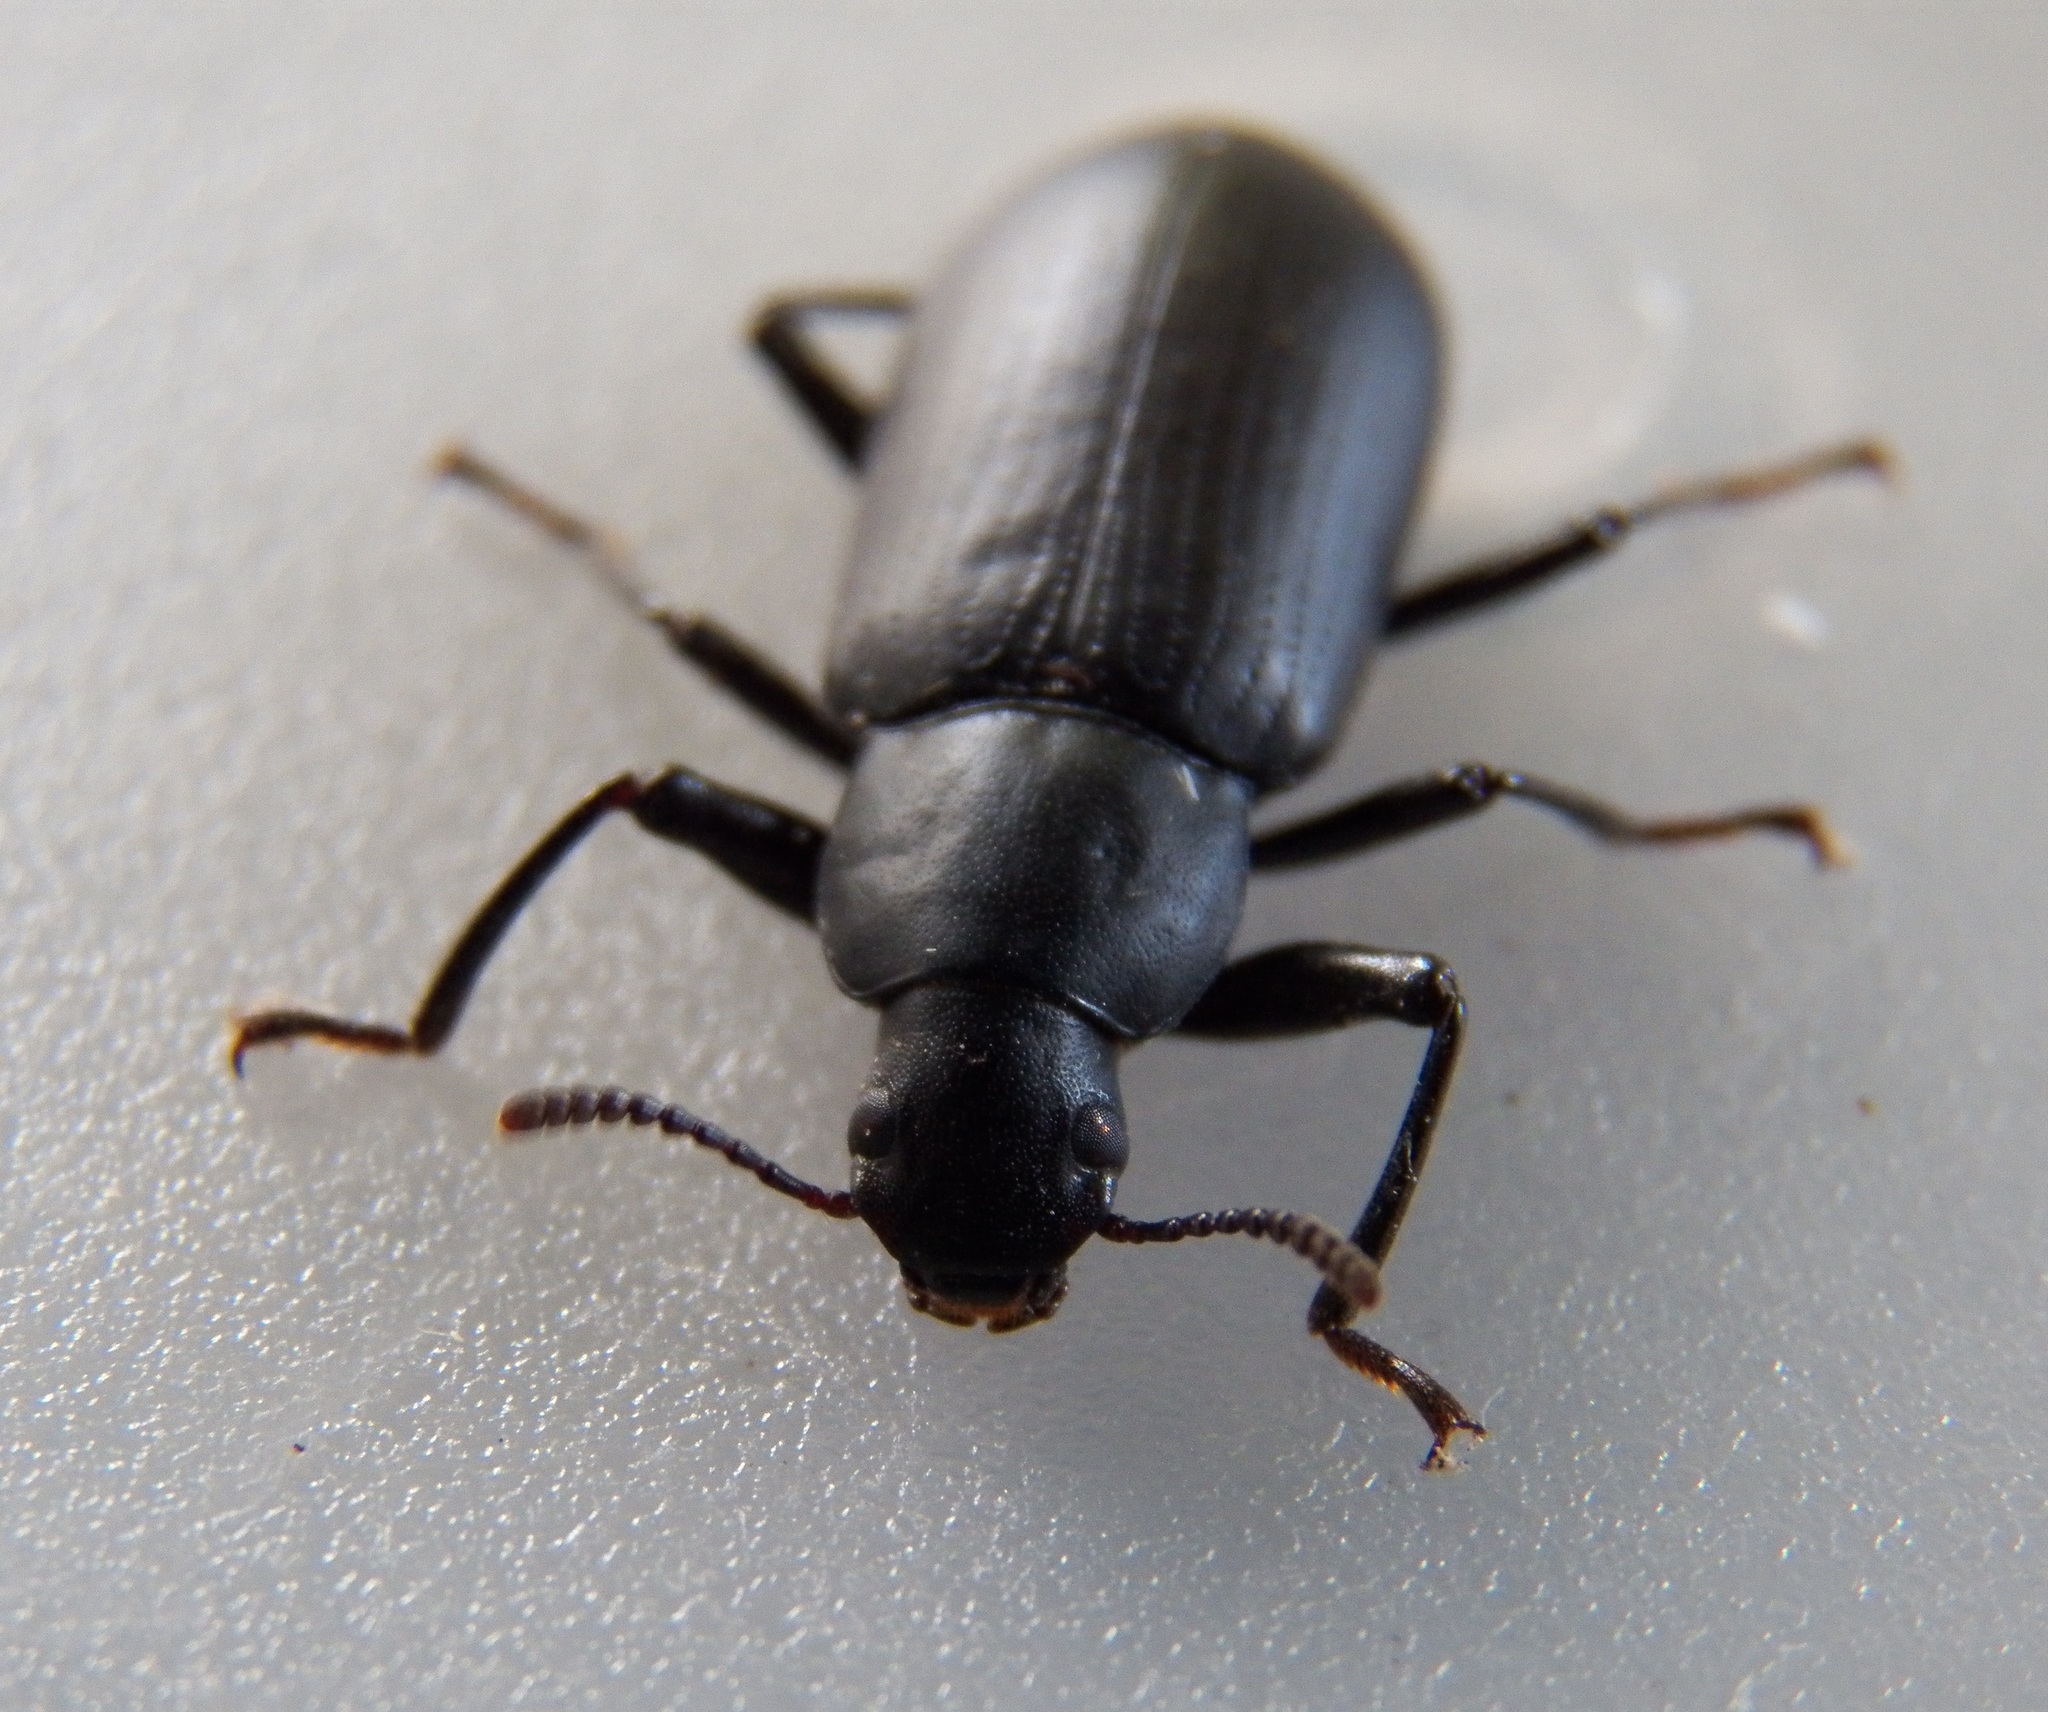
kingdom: Animalia
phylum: Arthropoda
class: Insecta
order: Coleoptera
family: Tenebrionidae
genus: Alobates
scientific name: Alobates pensylvanicus
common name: False mealworm beetle
